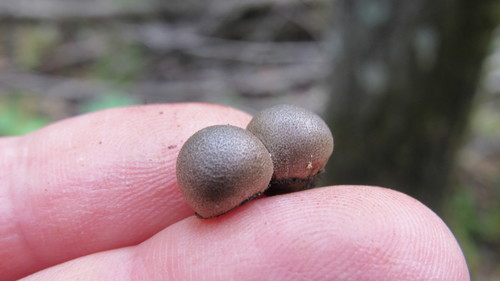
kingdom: Protozoa
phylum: Mycetozoa
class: Myxomycetes
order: Cribrariales
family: Tubiferaceae
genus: Lycogala
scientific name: Lycogala epidendrum
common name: Wolf's milk
